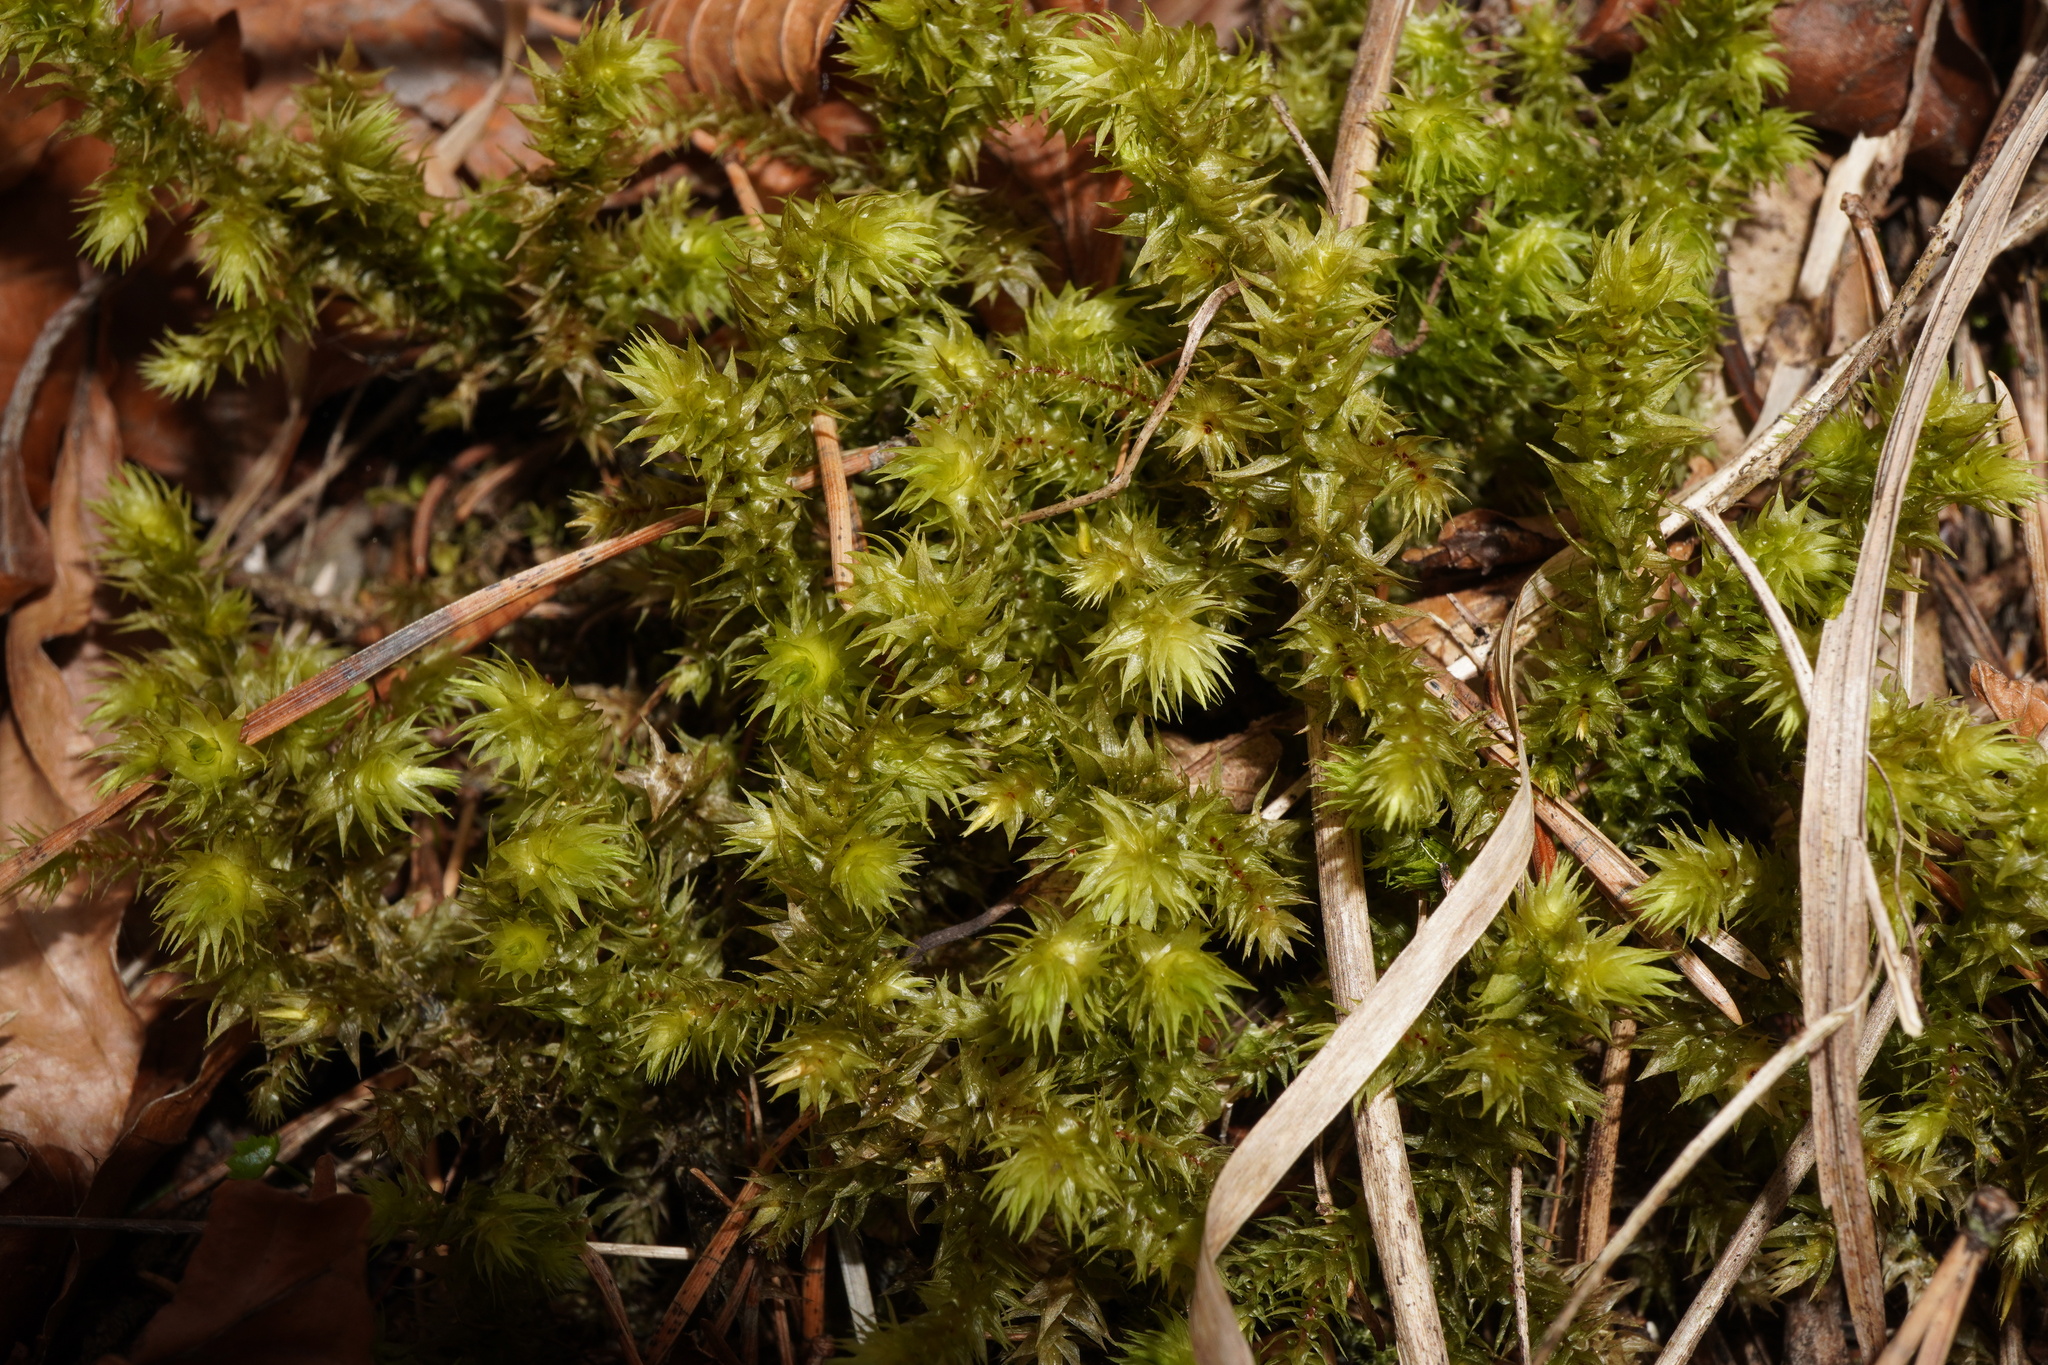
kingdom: Plantae
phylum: Bryophyta
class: Bryopsida
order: Hypnales
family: Hylocomiaceae
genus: Hylocomiadelphus
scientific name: Hylocomiadelphus triquetrus
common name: Rough goose neck moss
